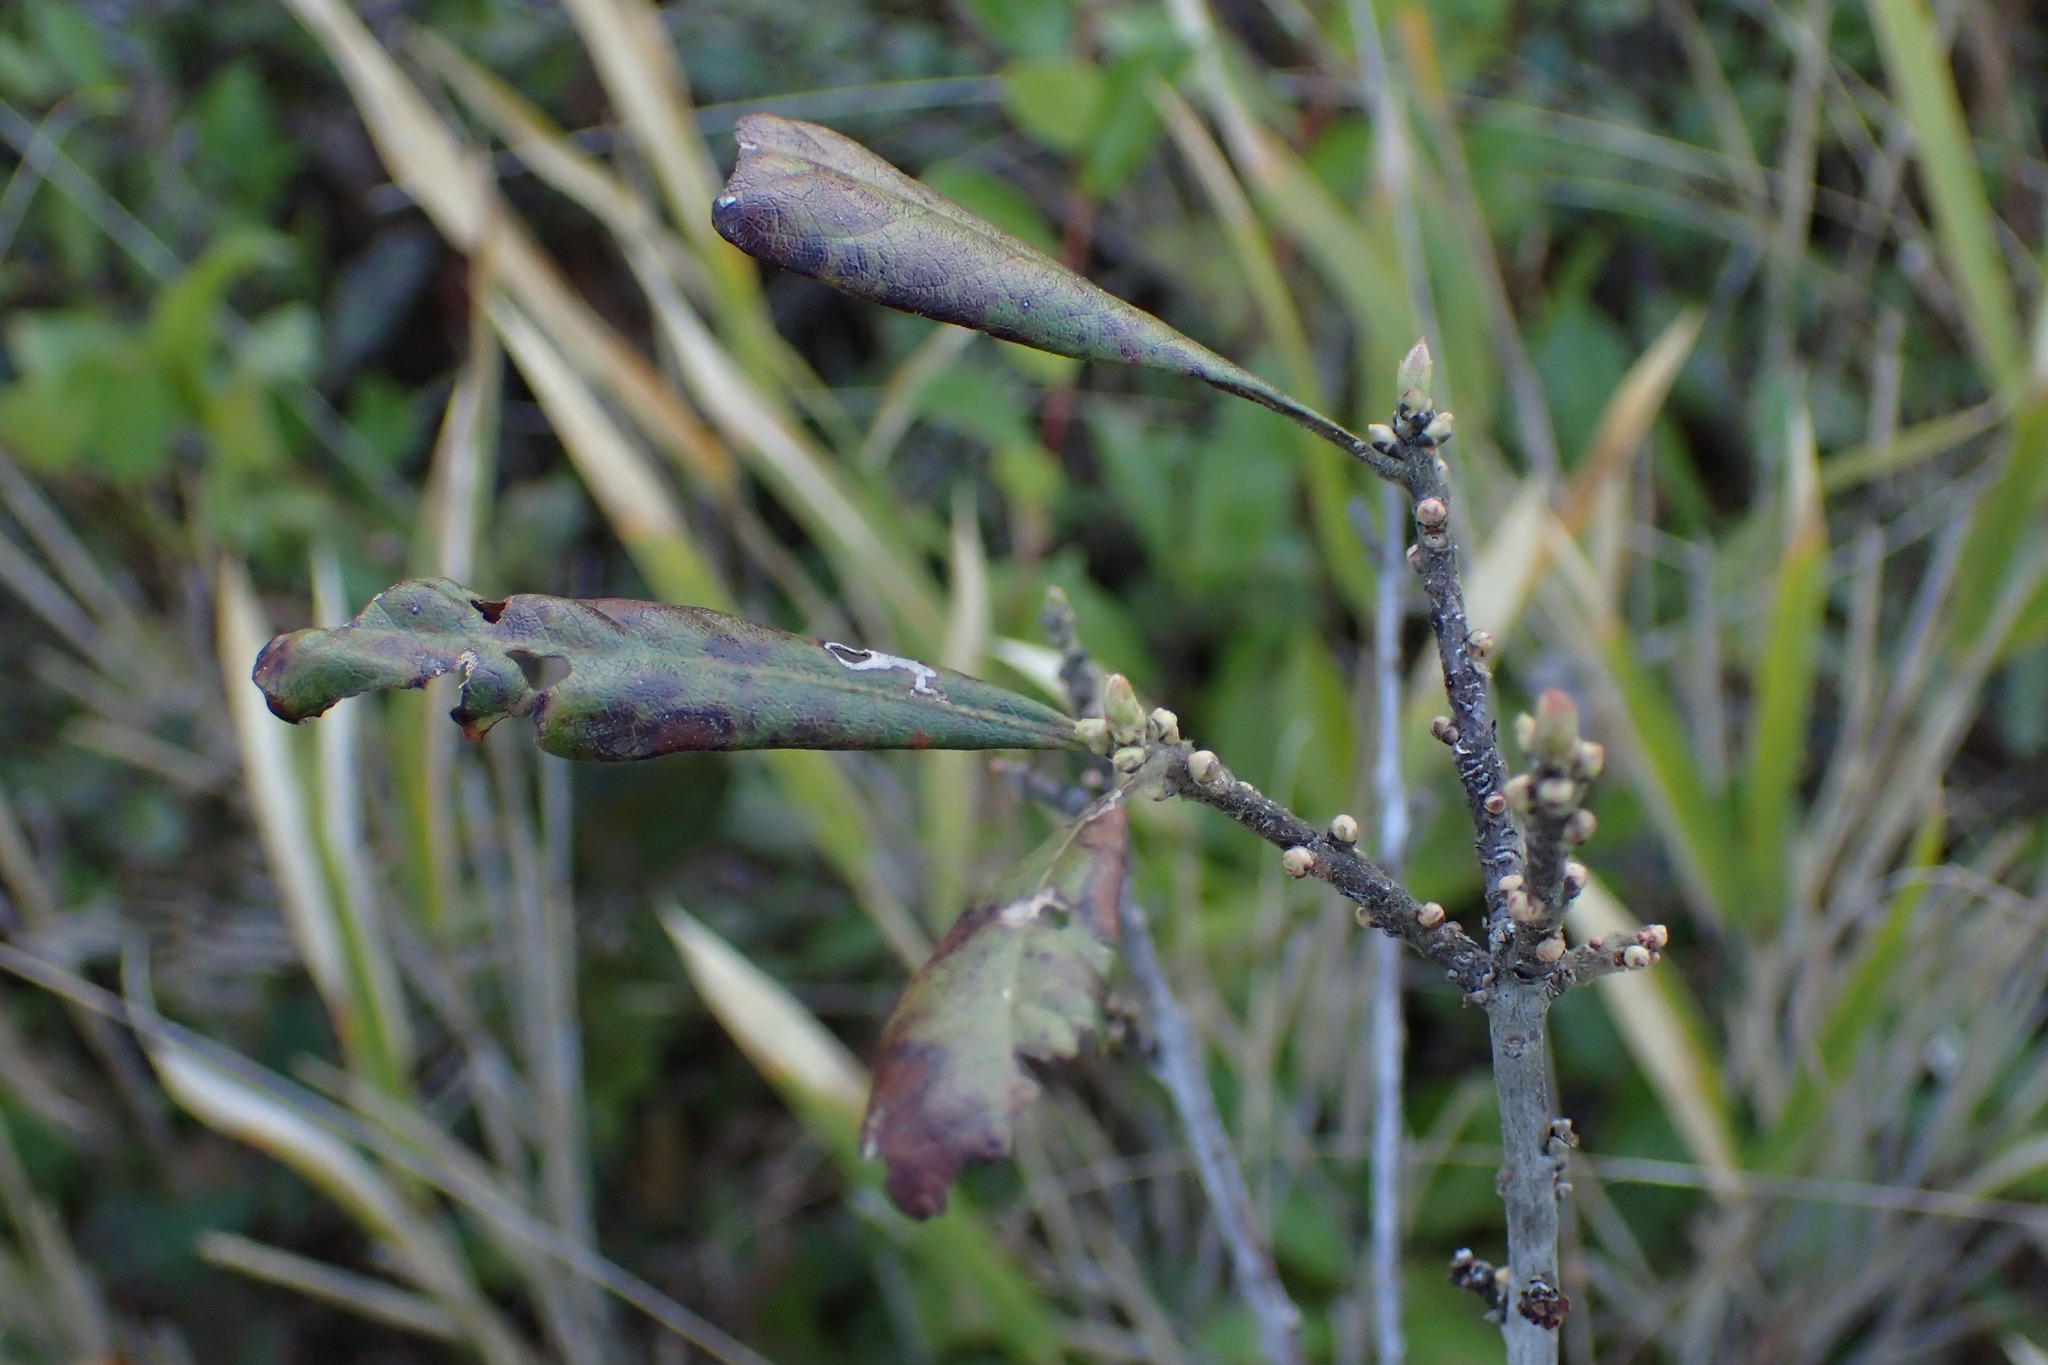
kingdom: Plantae
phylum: Tracheophyta
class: Magnoliopsida
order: Fagales
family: Myricaceae
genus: Morella
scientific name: Morella caroliniensis
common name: Evergreen bayberry
